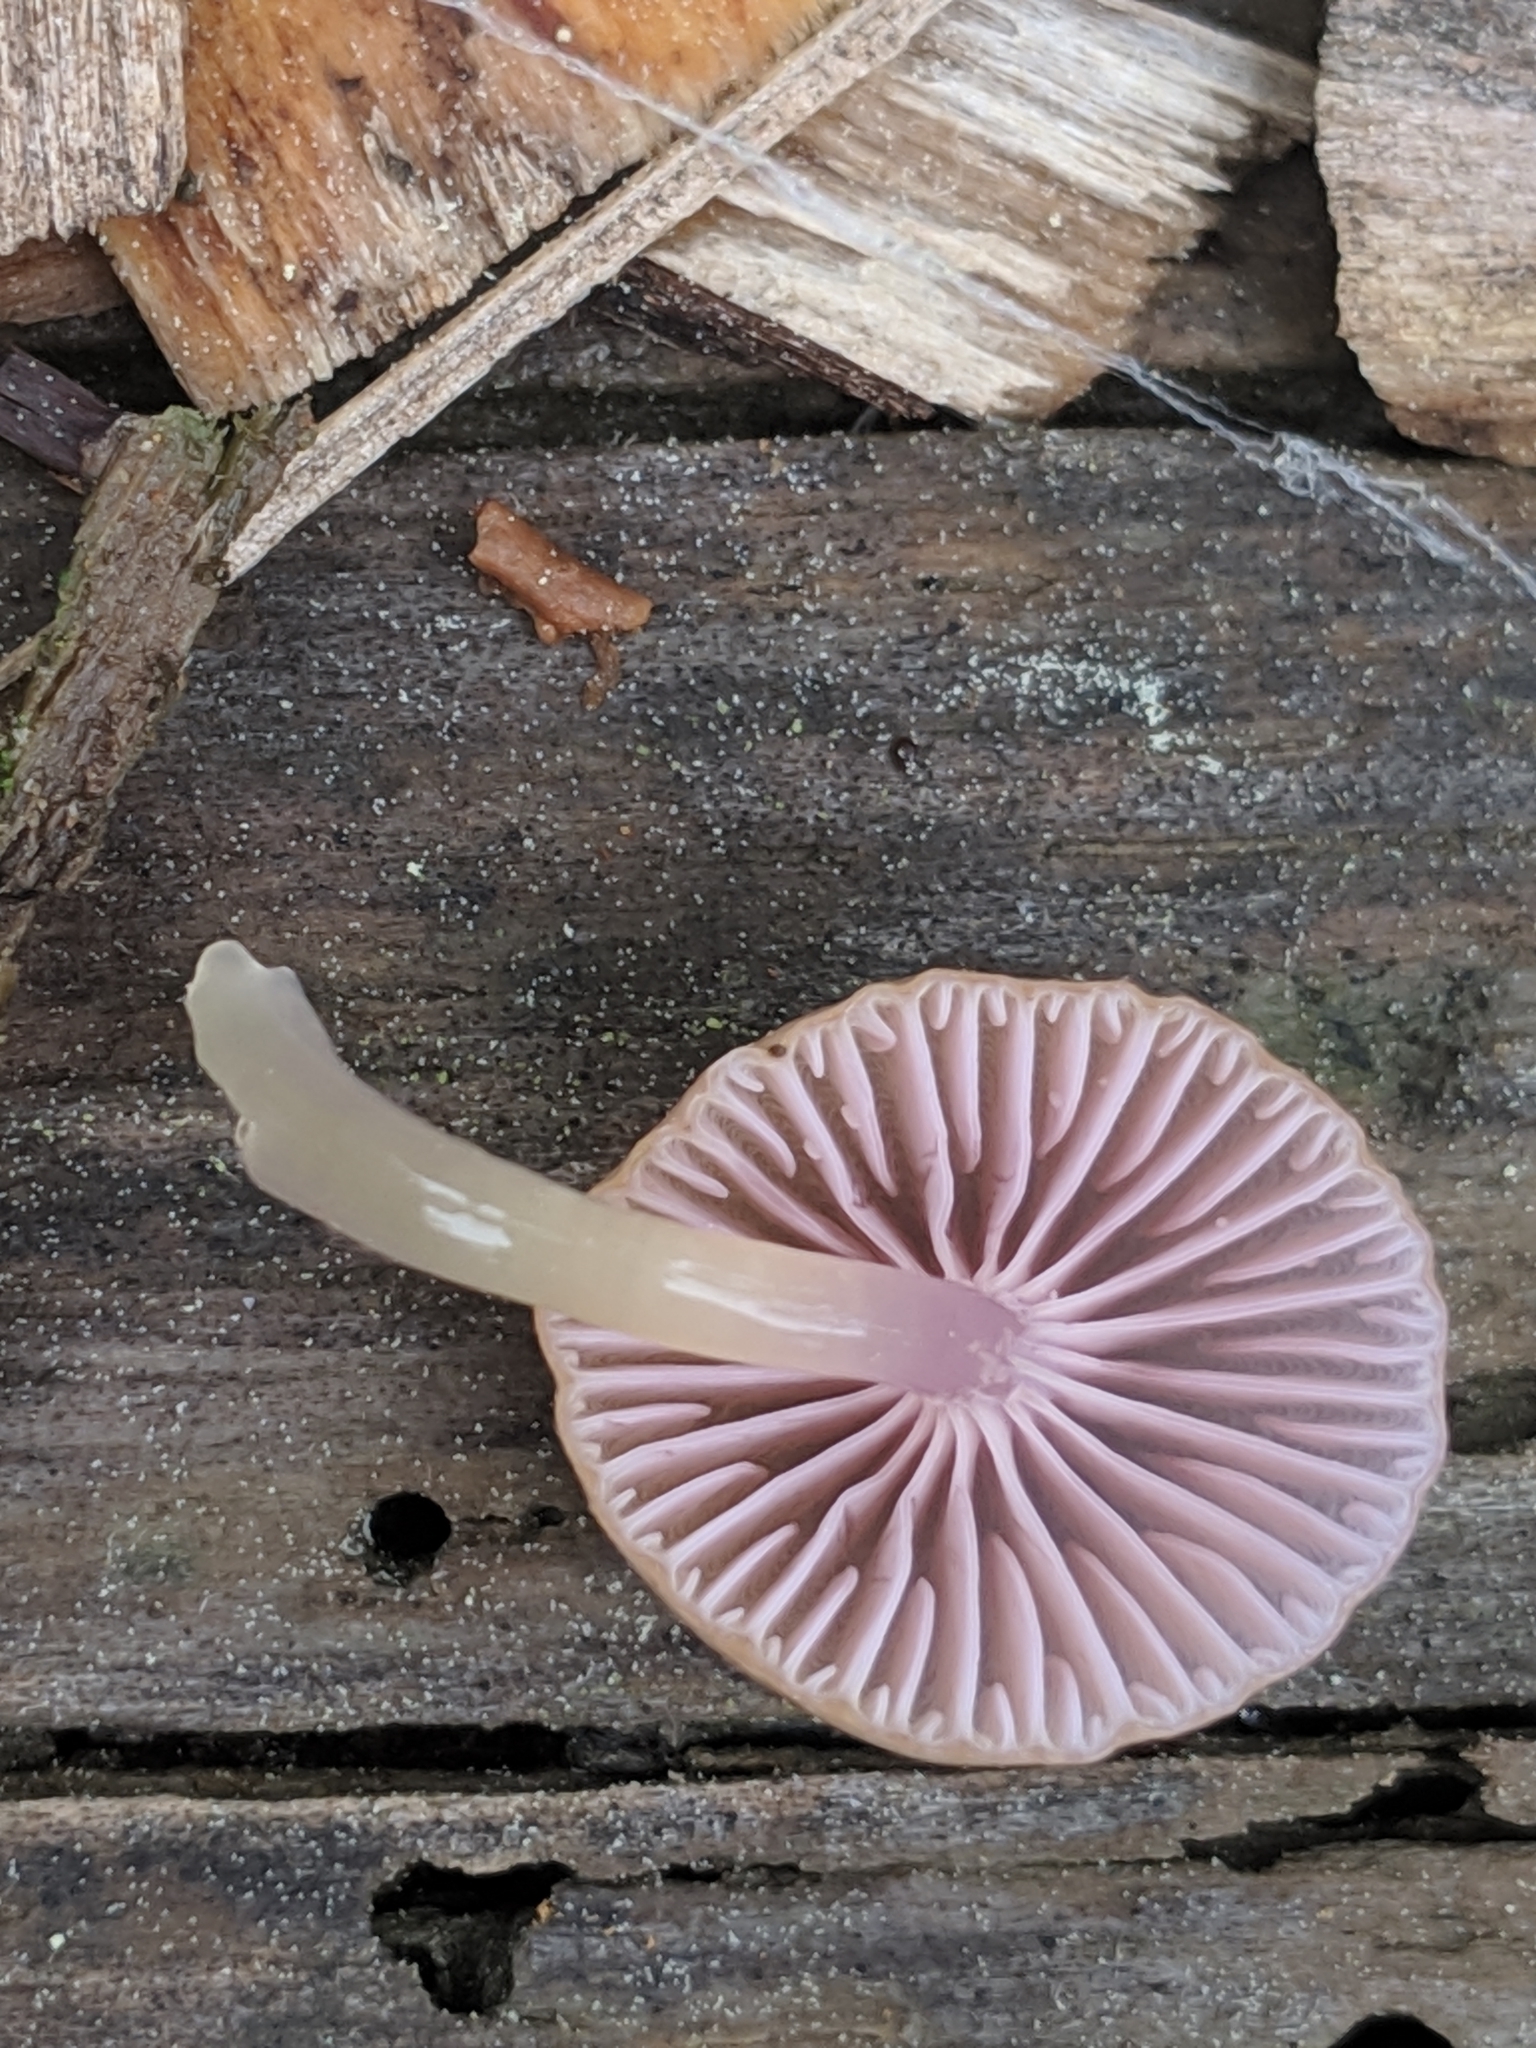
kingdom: Fungi
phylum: Basidiomycota
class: Agaricomycetes
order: Agaricales
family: Hygrophoraceae
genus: Chromosera
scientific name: Chromosera cyanophylla
